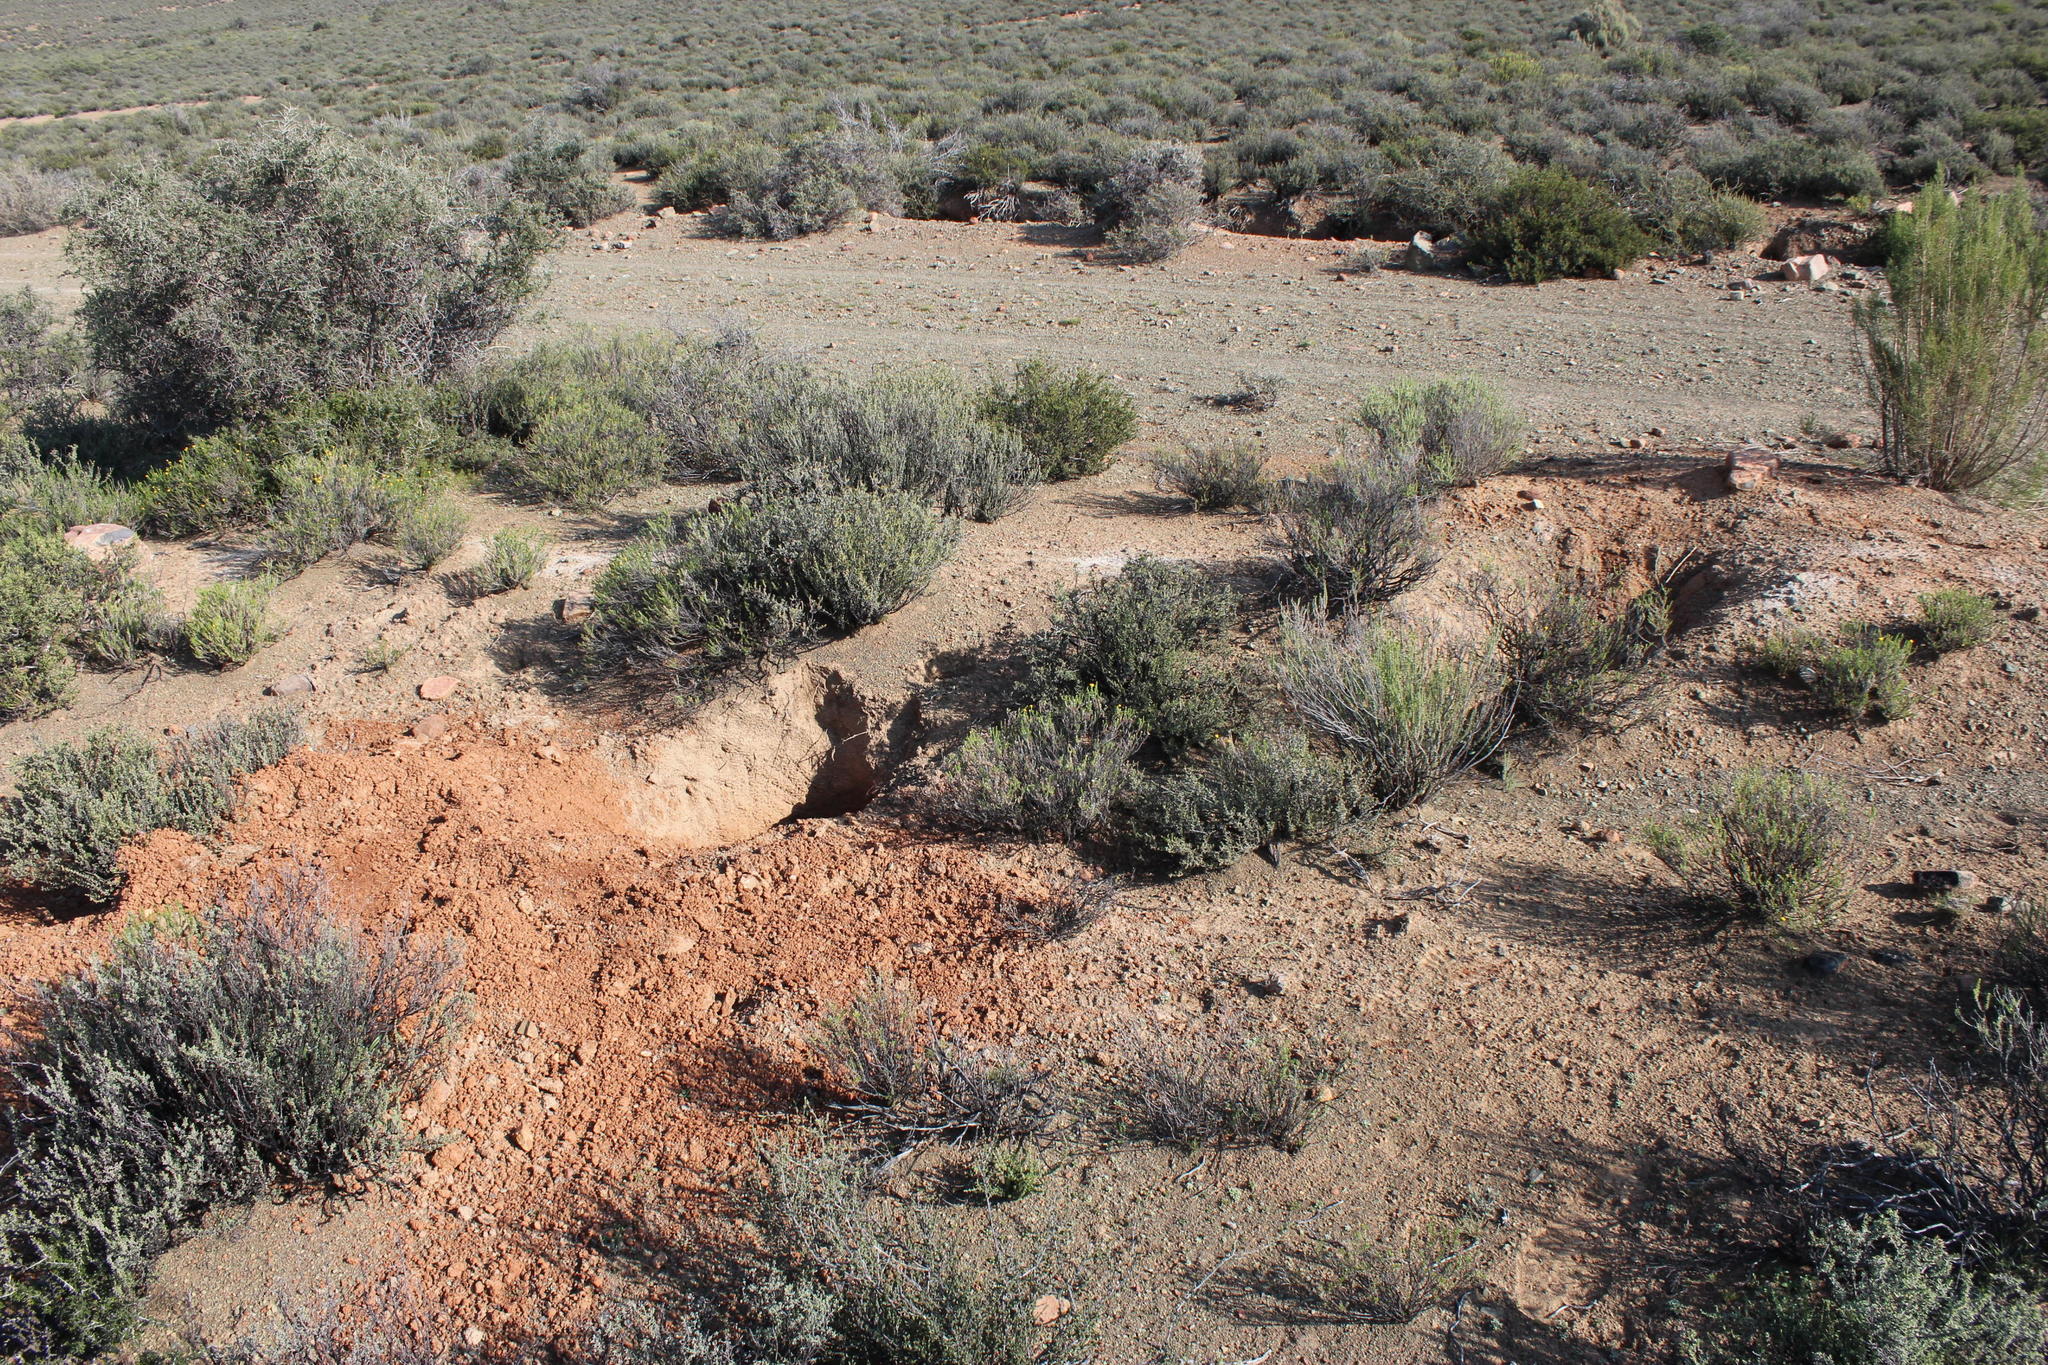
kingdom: Animalia
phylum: Chordata
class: Mammalia
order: Tubulidentata
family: Orycteropodidae
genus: Orycteropus
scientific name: Orycteropus afer
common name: Aardvark
